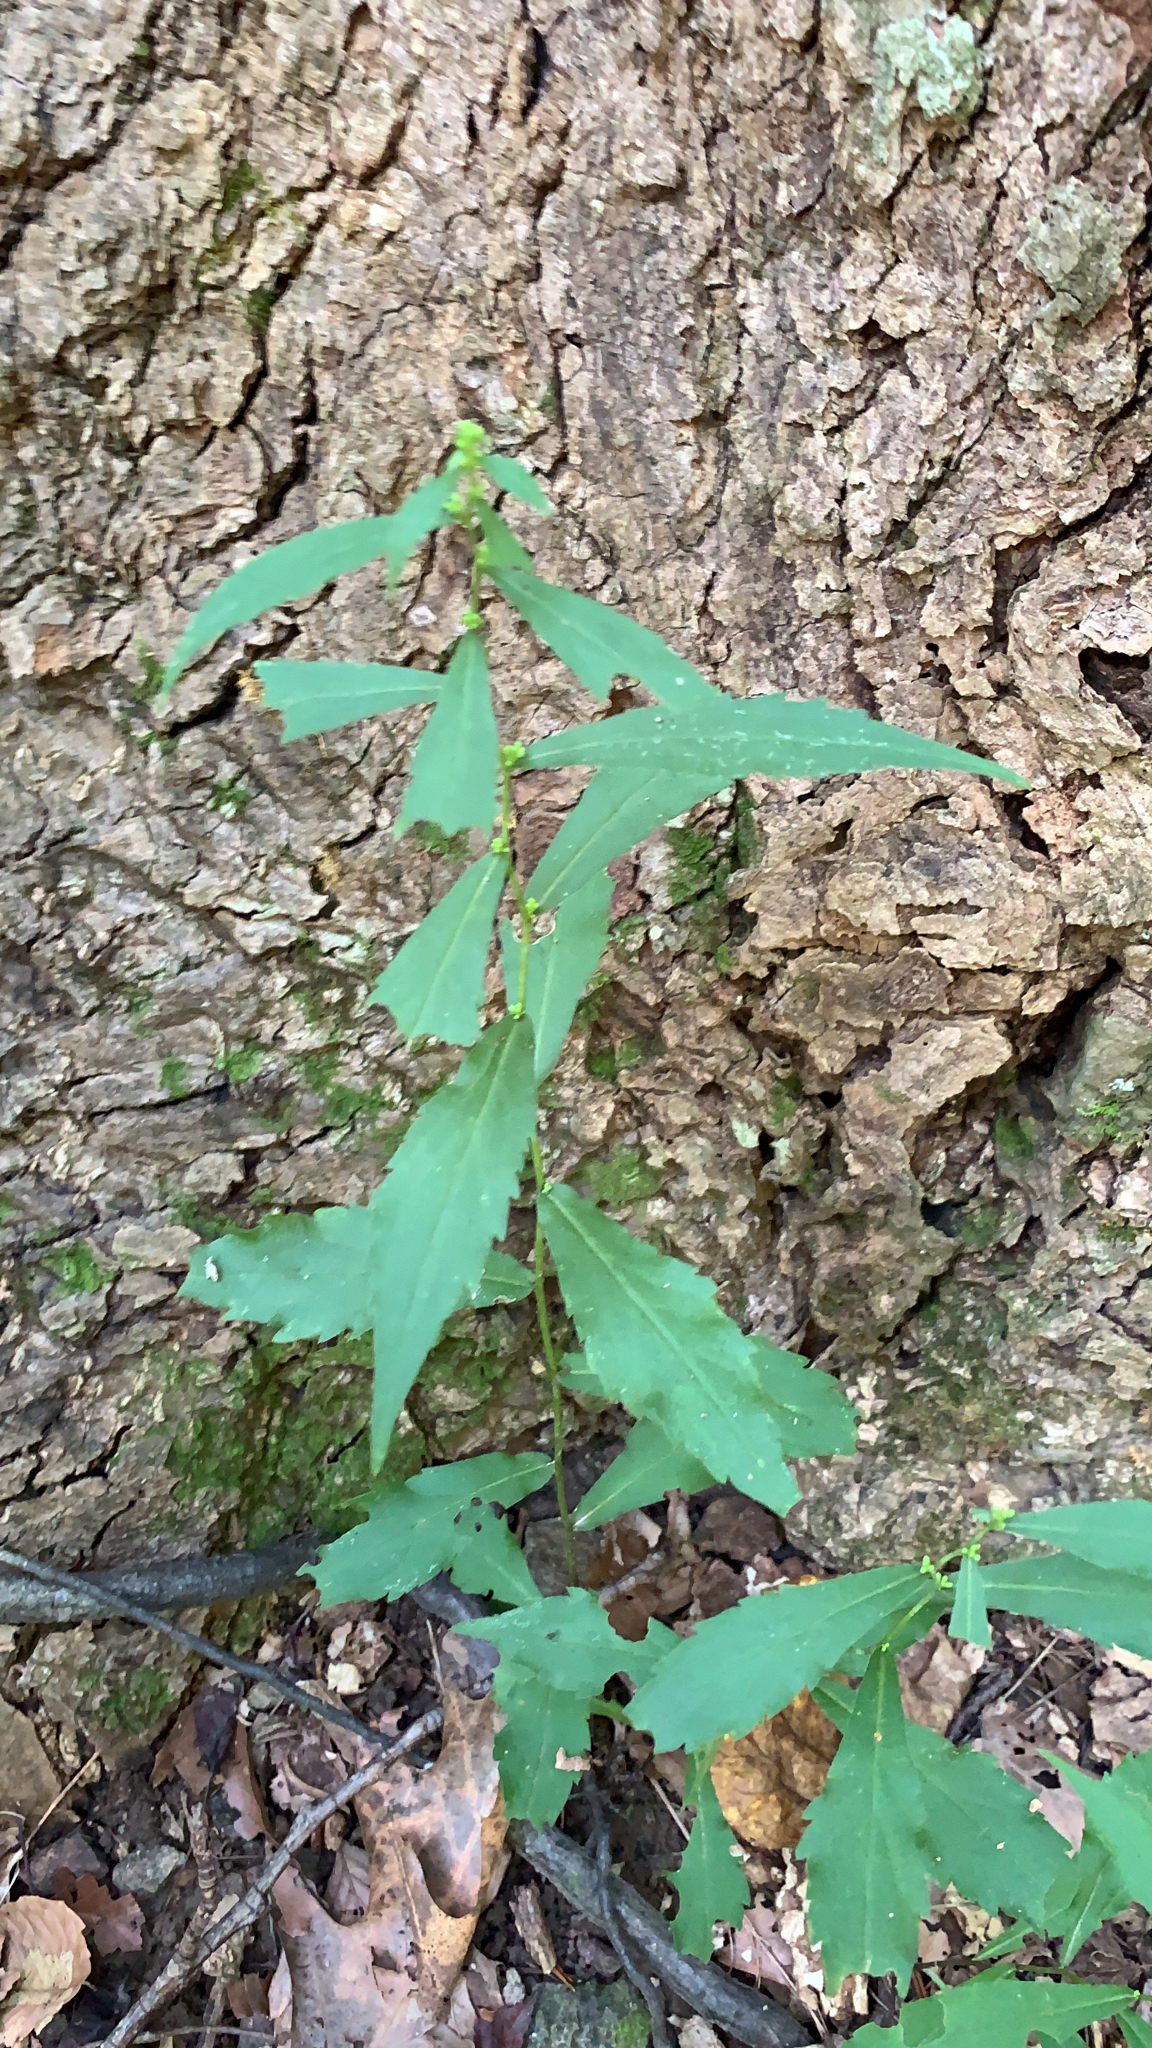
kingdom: Plantae
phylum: Tracheophyta
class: Magnoliopsida
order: Asterales
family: Asteraceae
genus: Solidago
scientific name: Solidago caesia
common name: Woodland goldenrod
